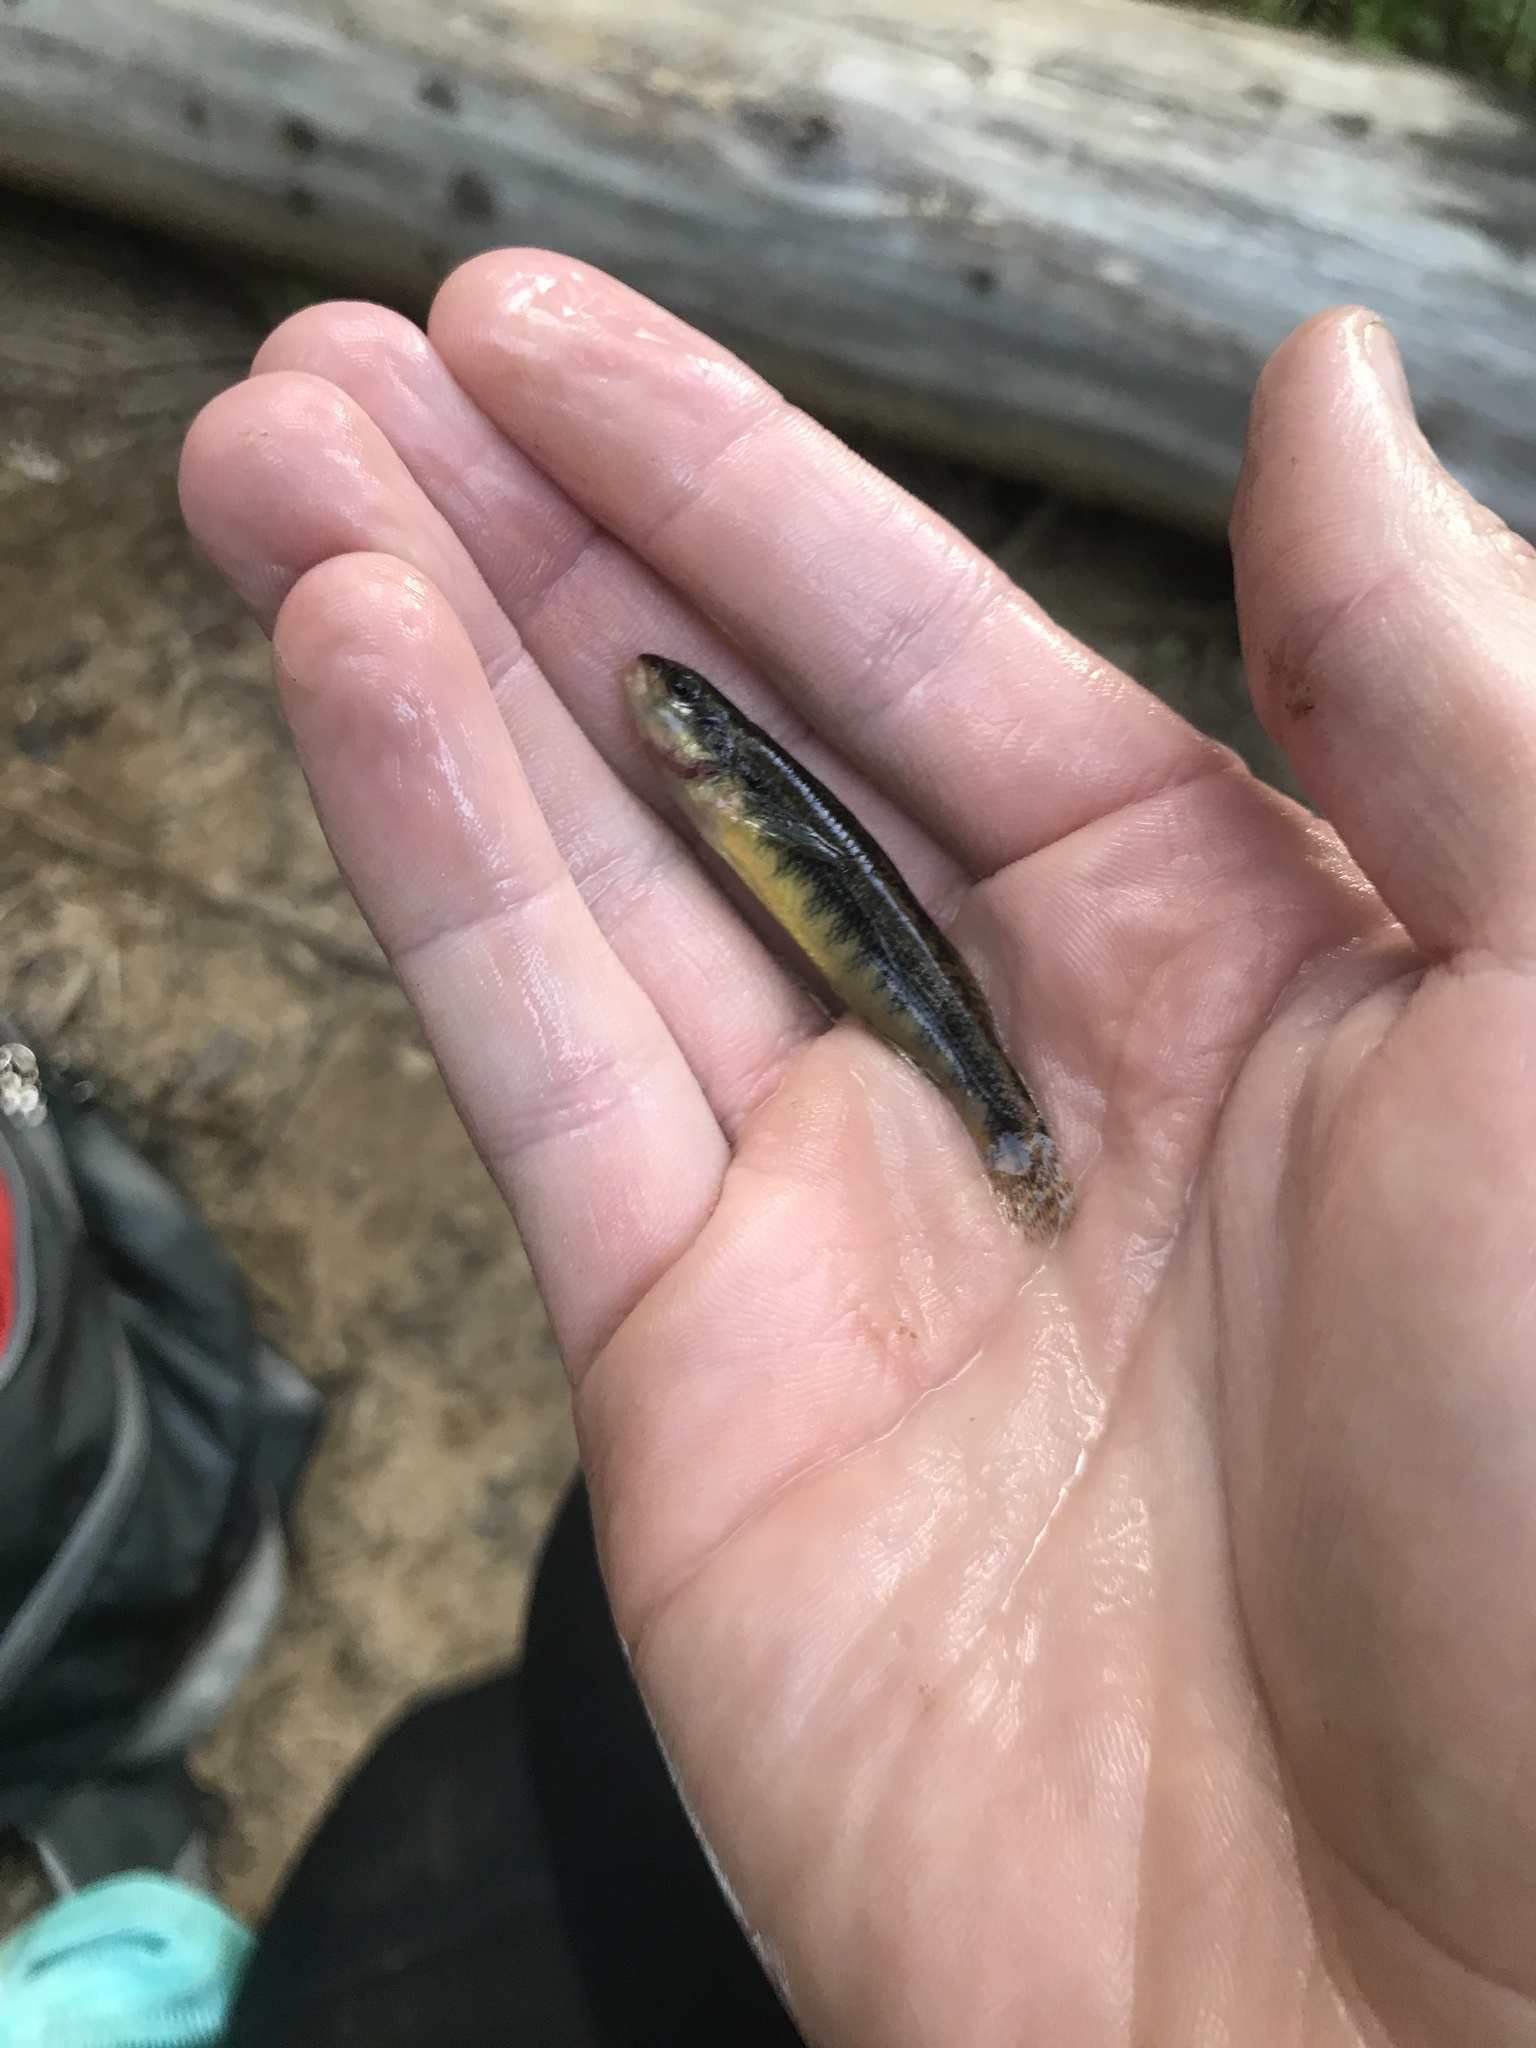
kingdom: Animalia
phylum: Chordata
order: Perciformes
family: Percidae
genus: Percina
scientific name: Percina roanoka
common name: Roanoke darter
